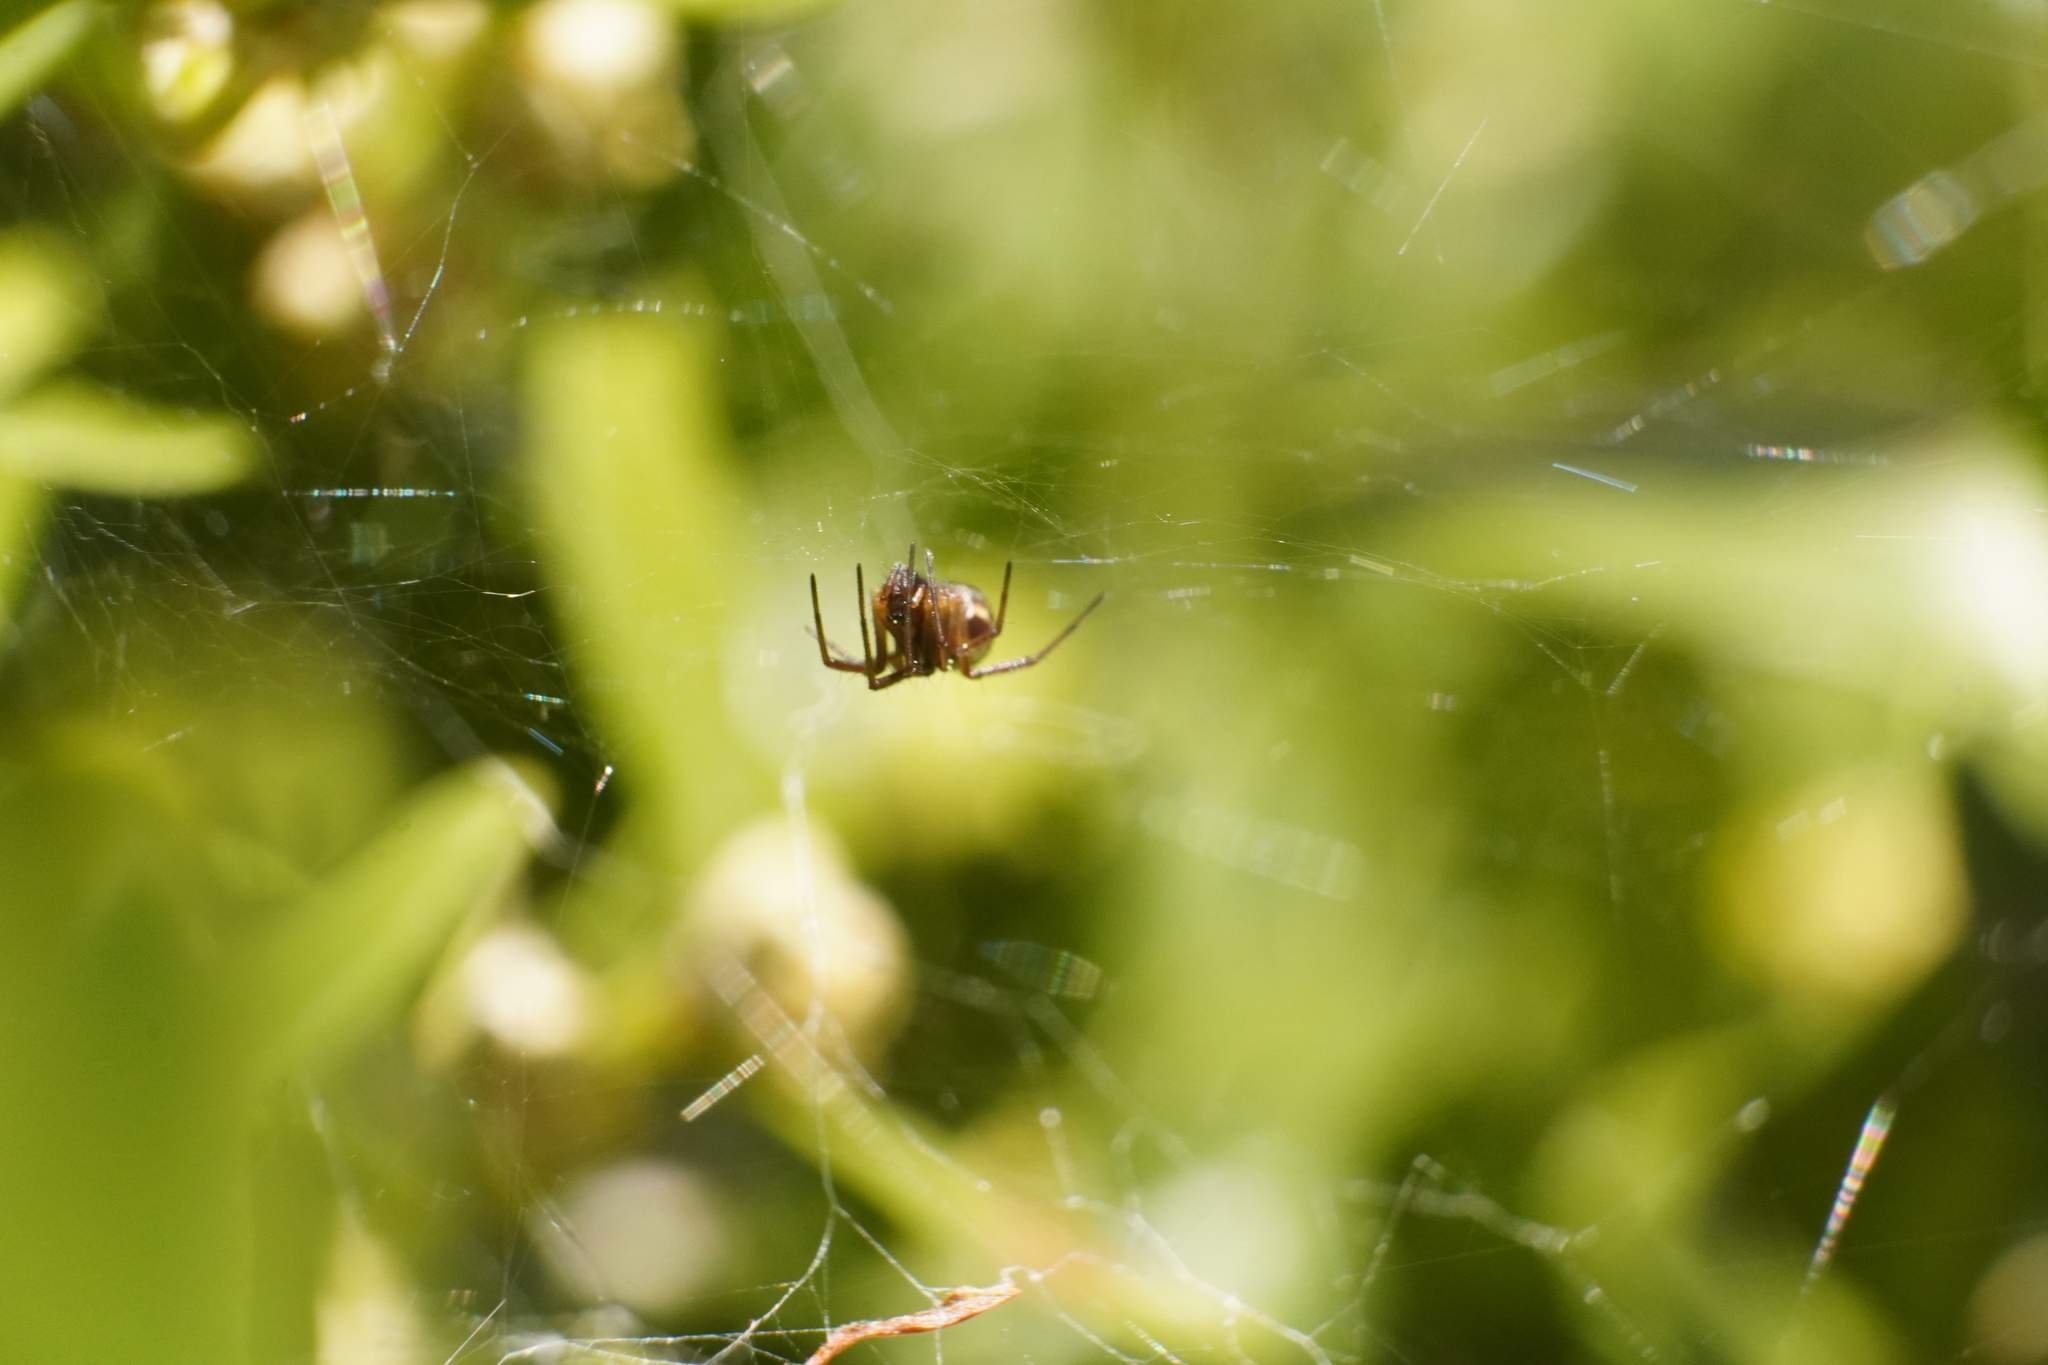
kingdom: Animalia
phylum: Arthropoda
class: Arachnida
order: Araneae
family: Linyphiidae
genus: Frontinella
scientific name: Frontinella pyramitela
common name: Bowl-and-doily spider
